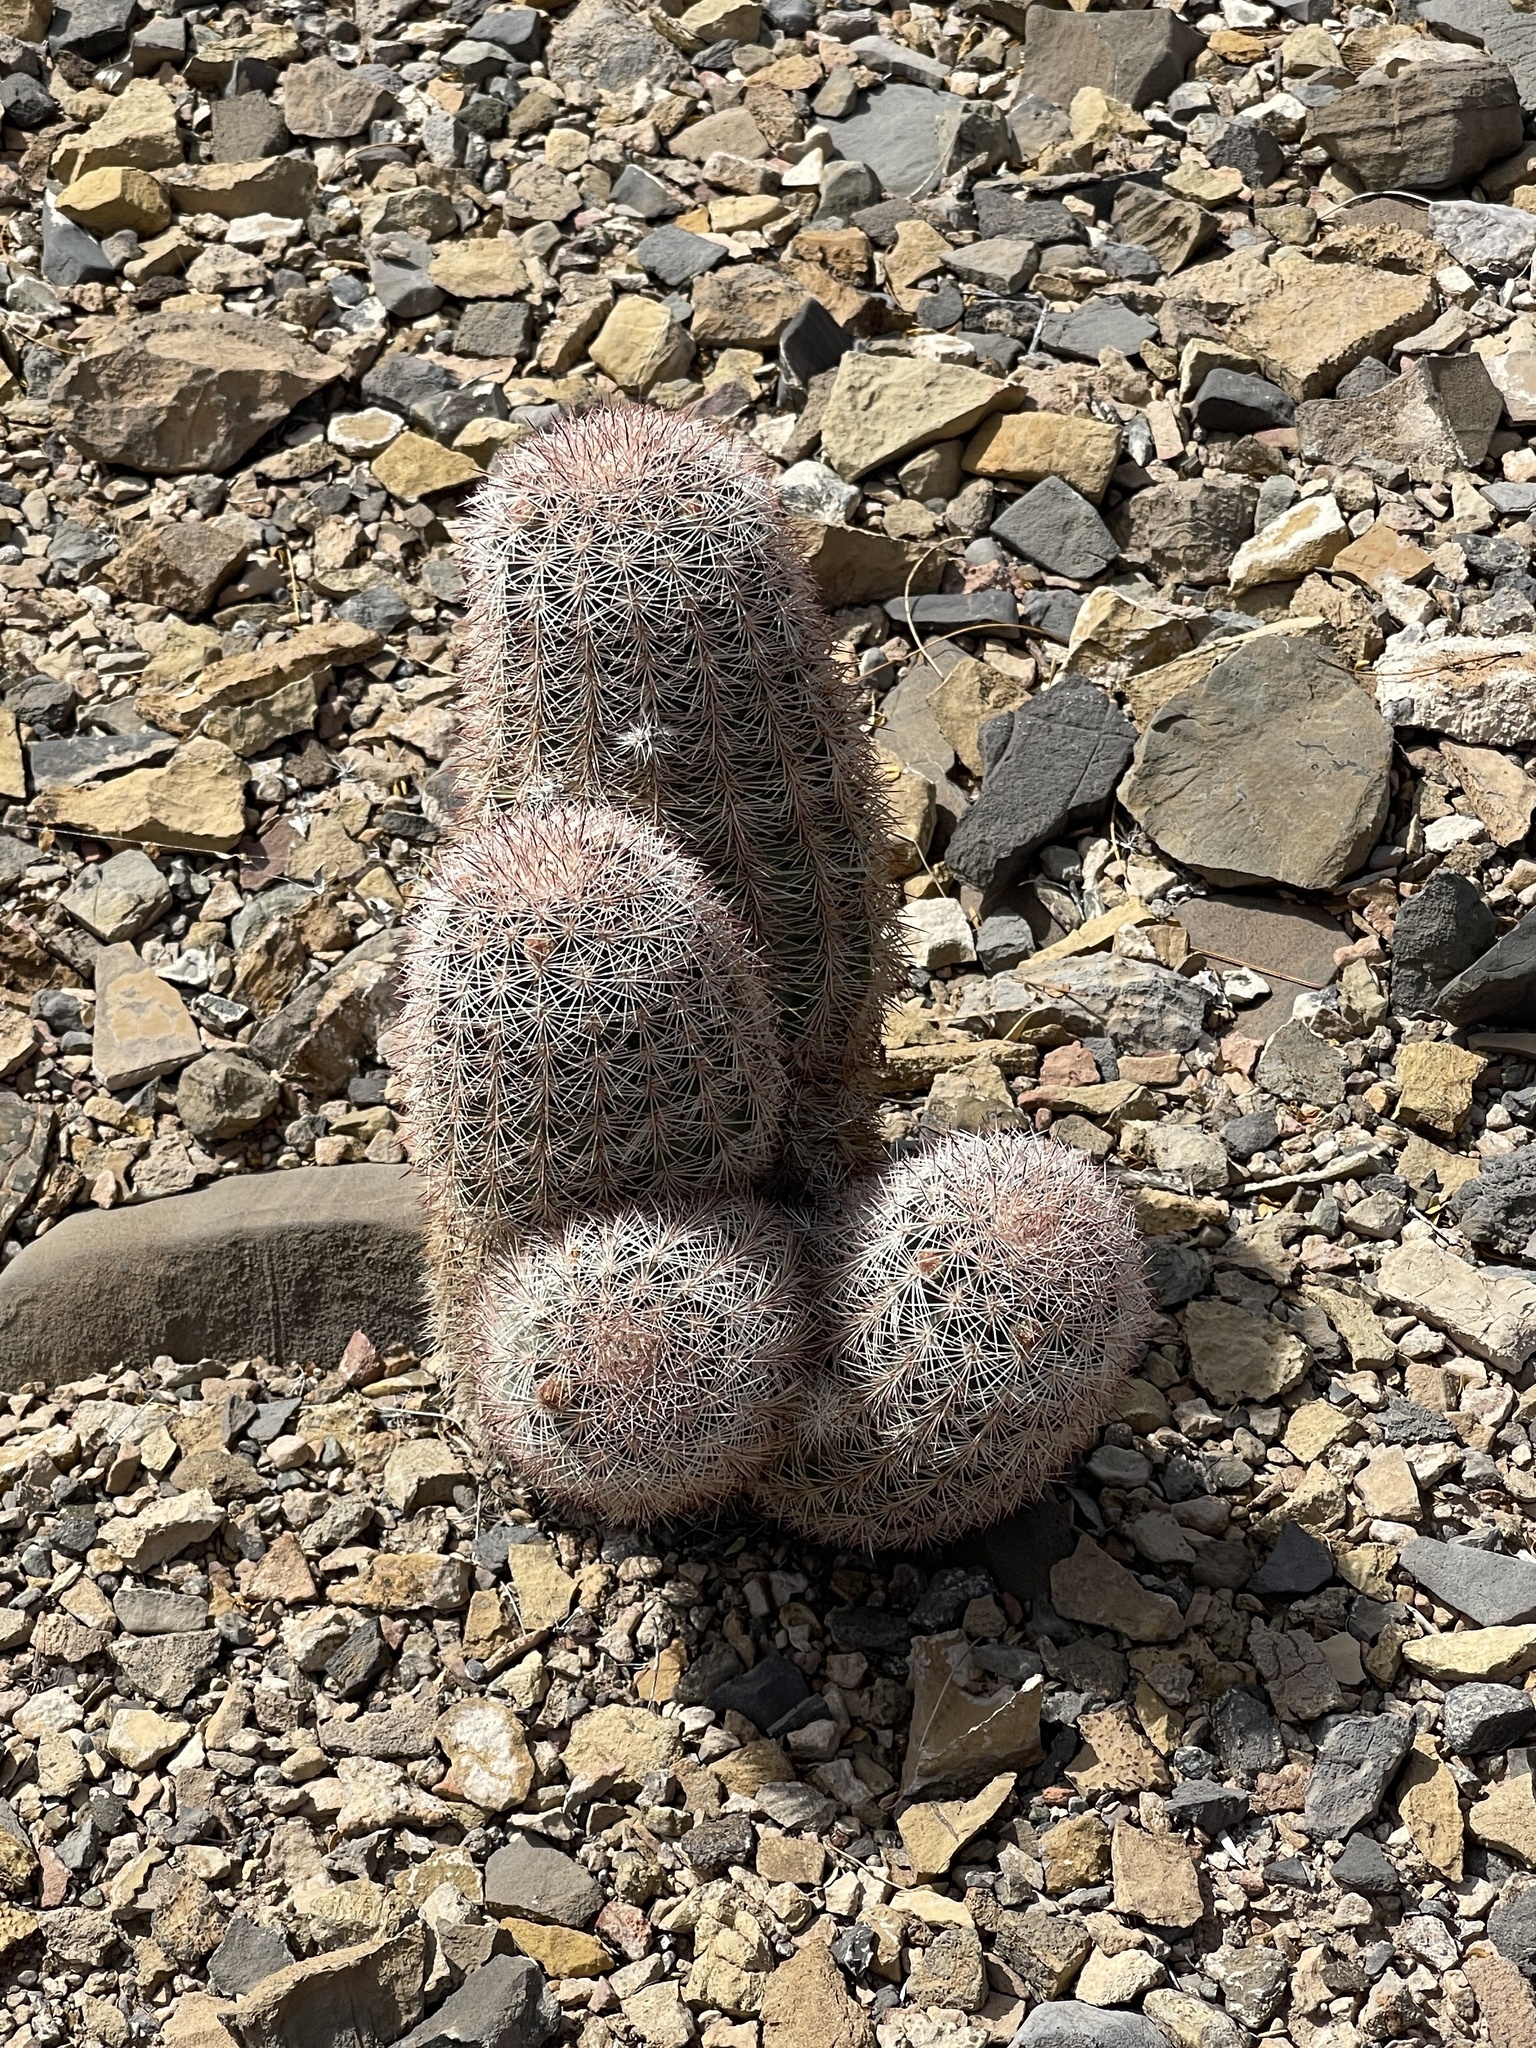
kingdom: Plantae
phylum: Tracheophyta
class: Magnoliopsida
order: Caryophyllales
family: Cactaceae
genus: Echinocereus
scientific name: Echinocereus dasyacanthus
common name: Spiny hedgehog cactus
